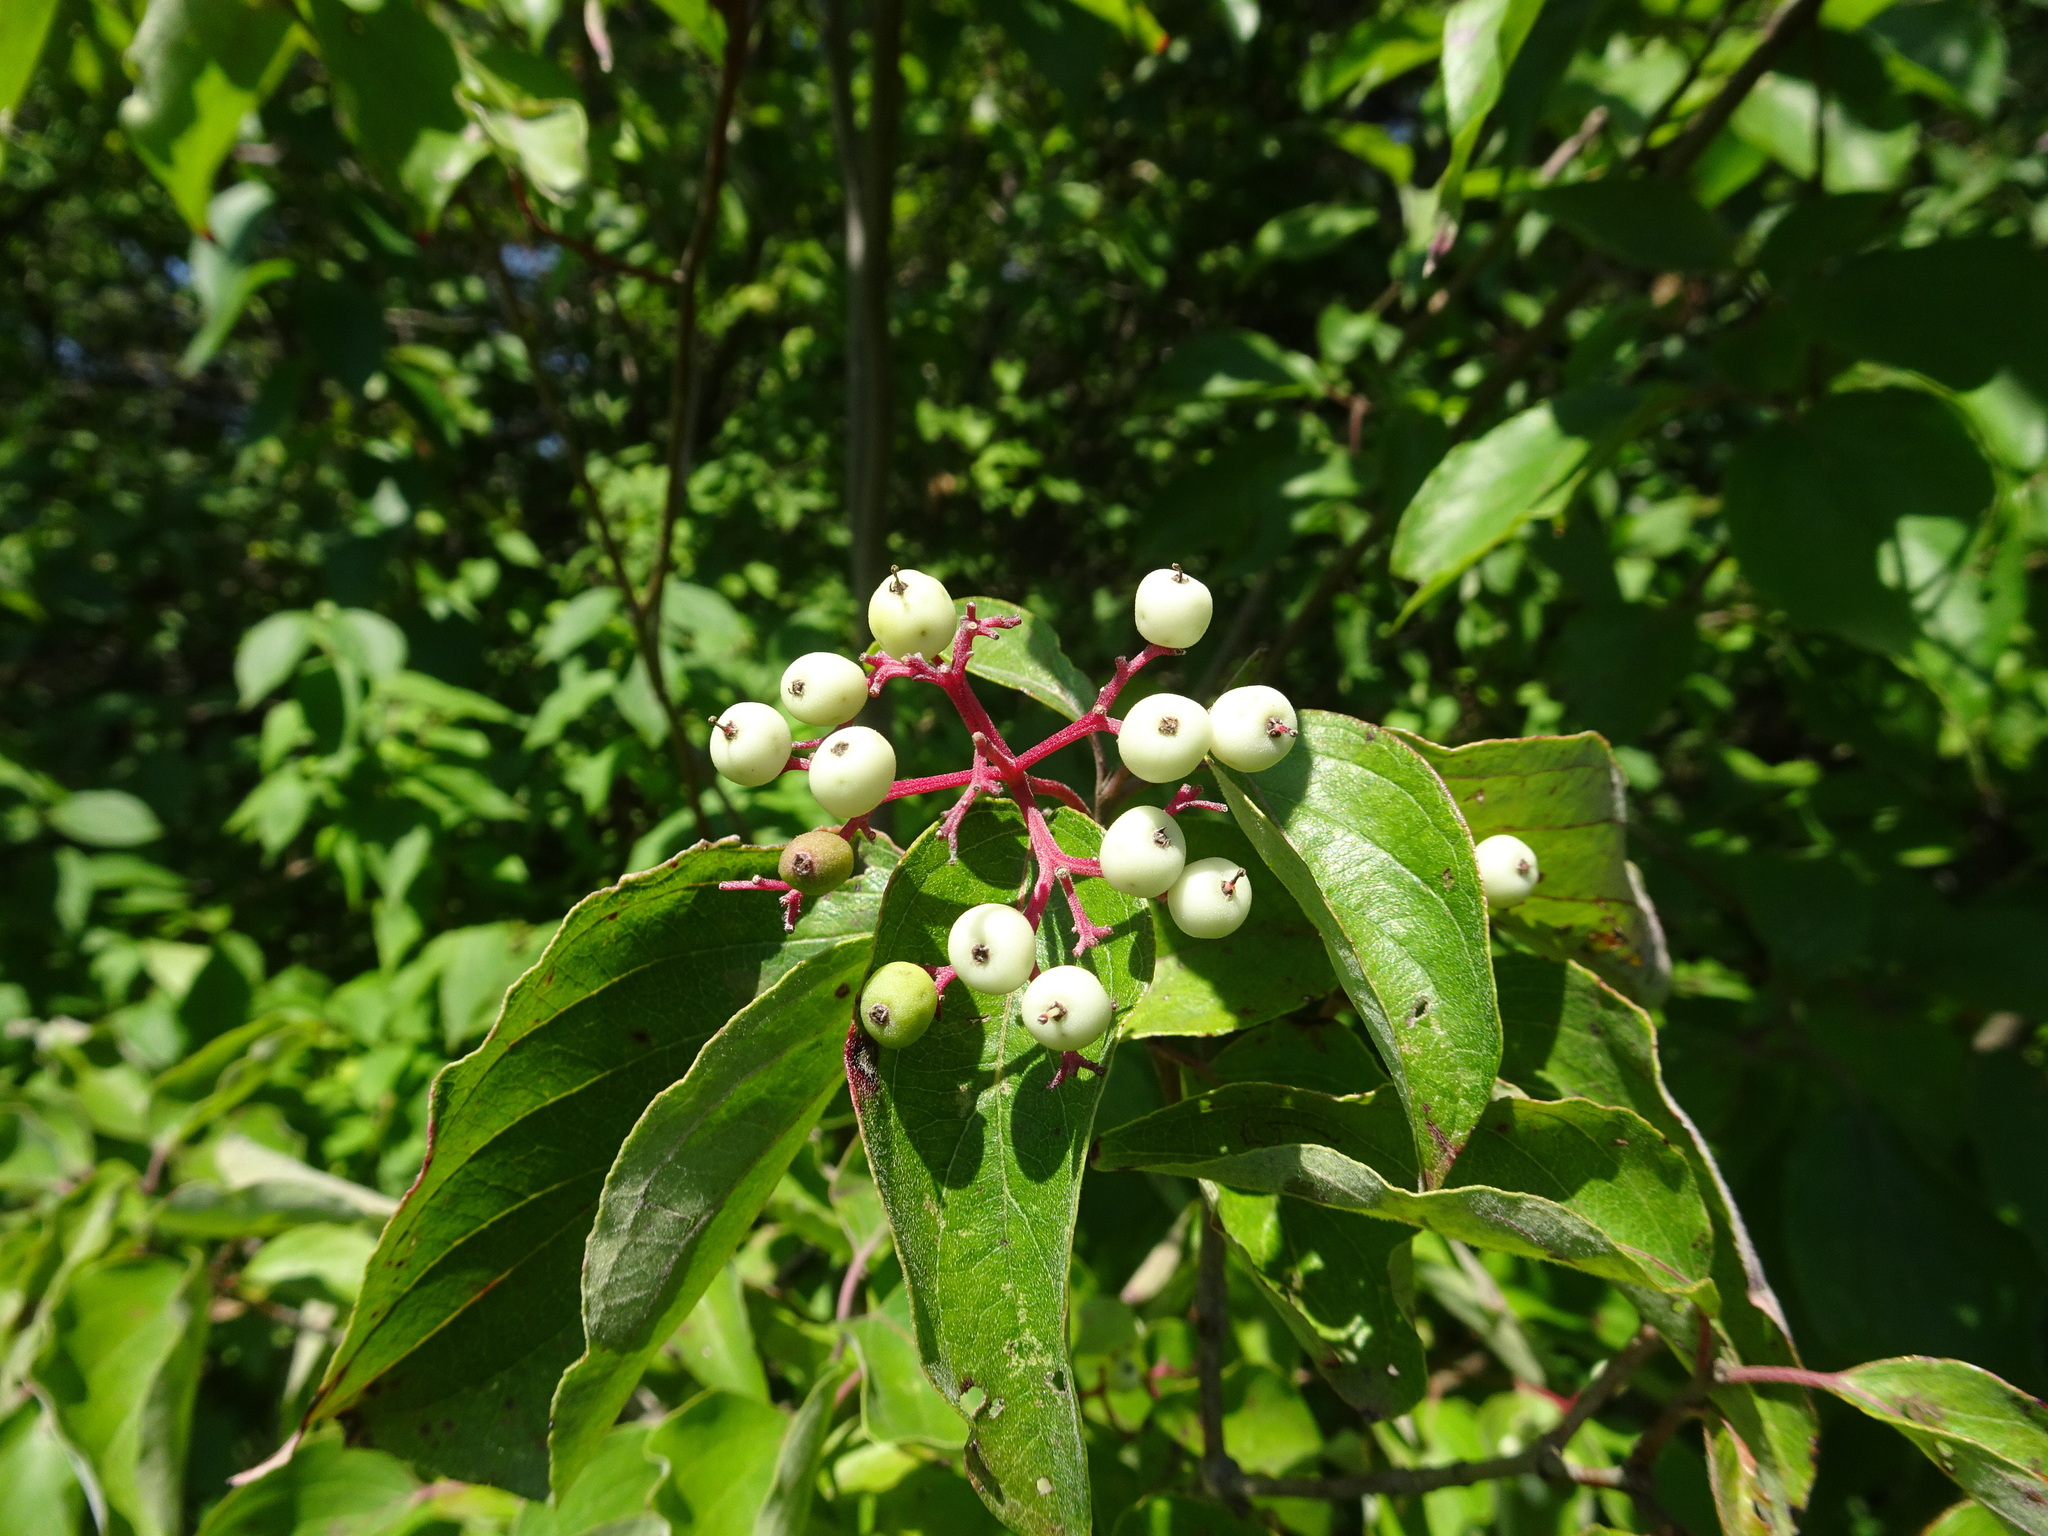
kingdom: Plantae
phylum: Tracheophyta
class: Magnoliopsida
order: Cornales
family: Cornaceae
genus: Cornus
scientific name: Cornus drummondii
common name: Rough-leaf dogwood
